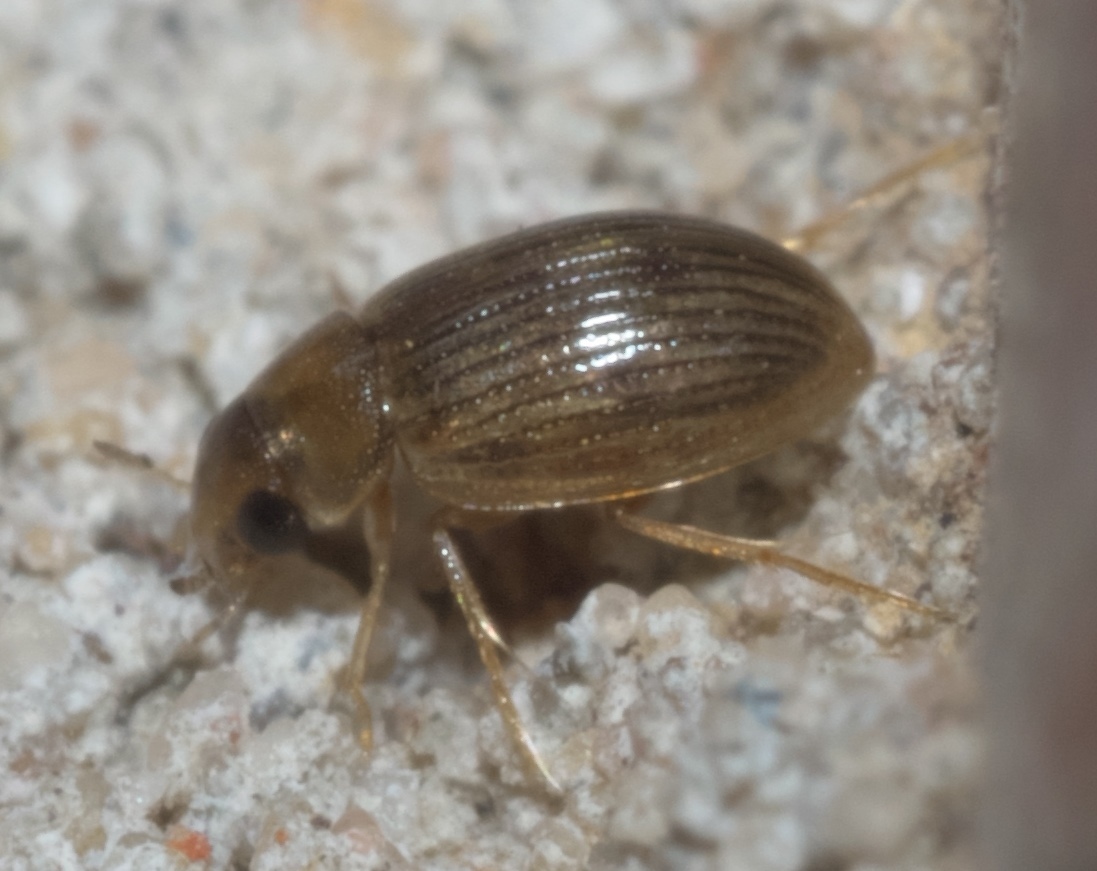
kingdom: Animalia
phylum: Arthropoda
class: Insecta
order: Coleoptera
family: Hydrophilidae
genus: Berosus
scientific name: Berosus exiguus
